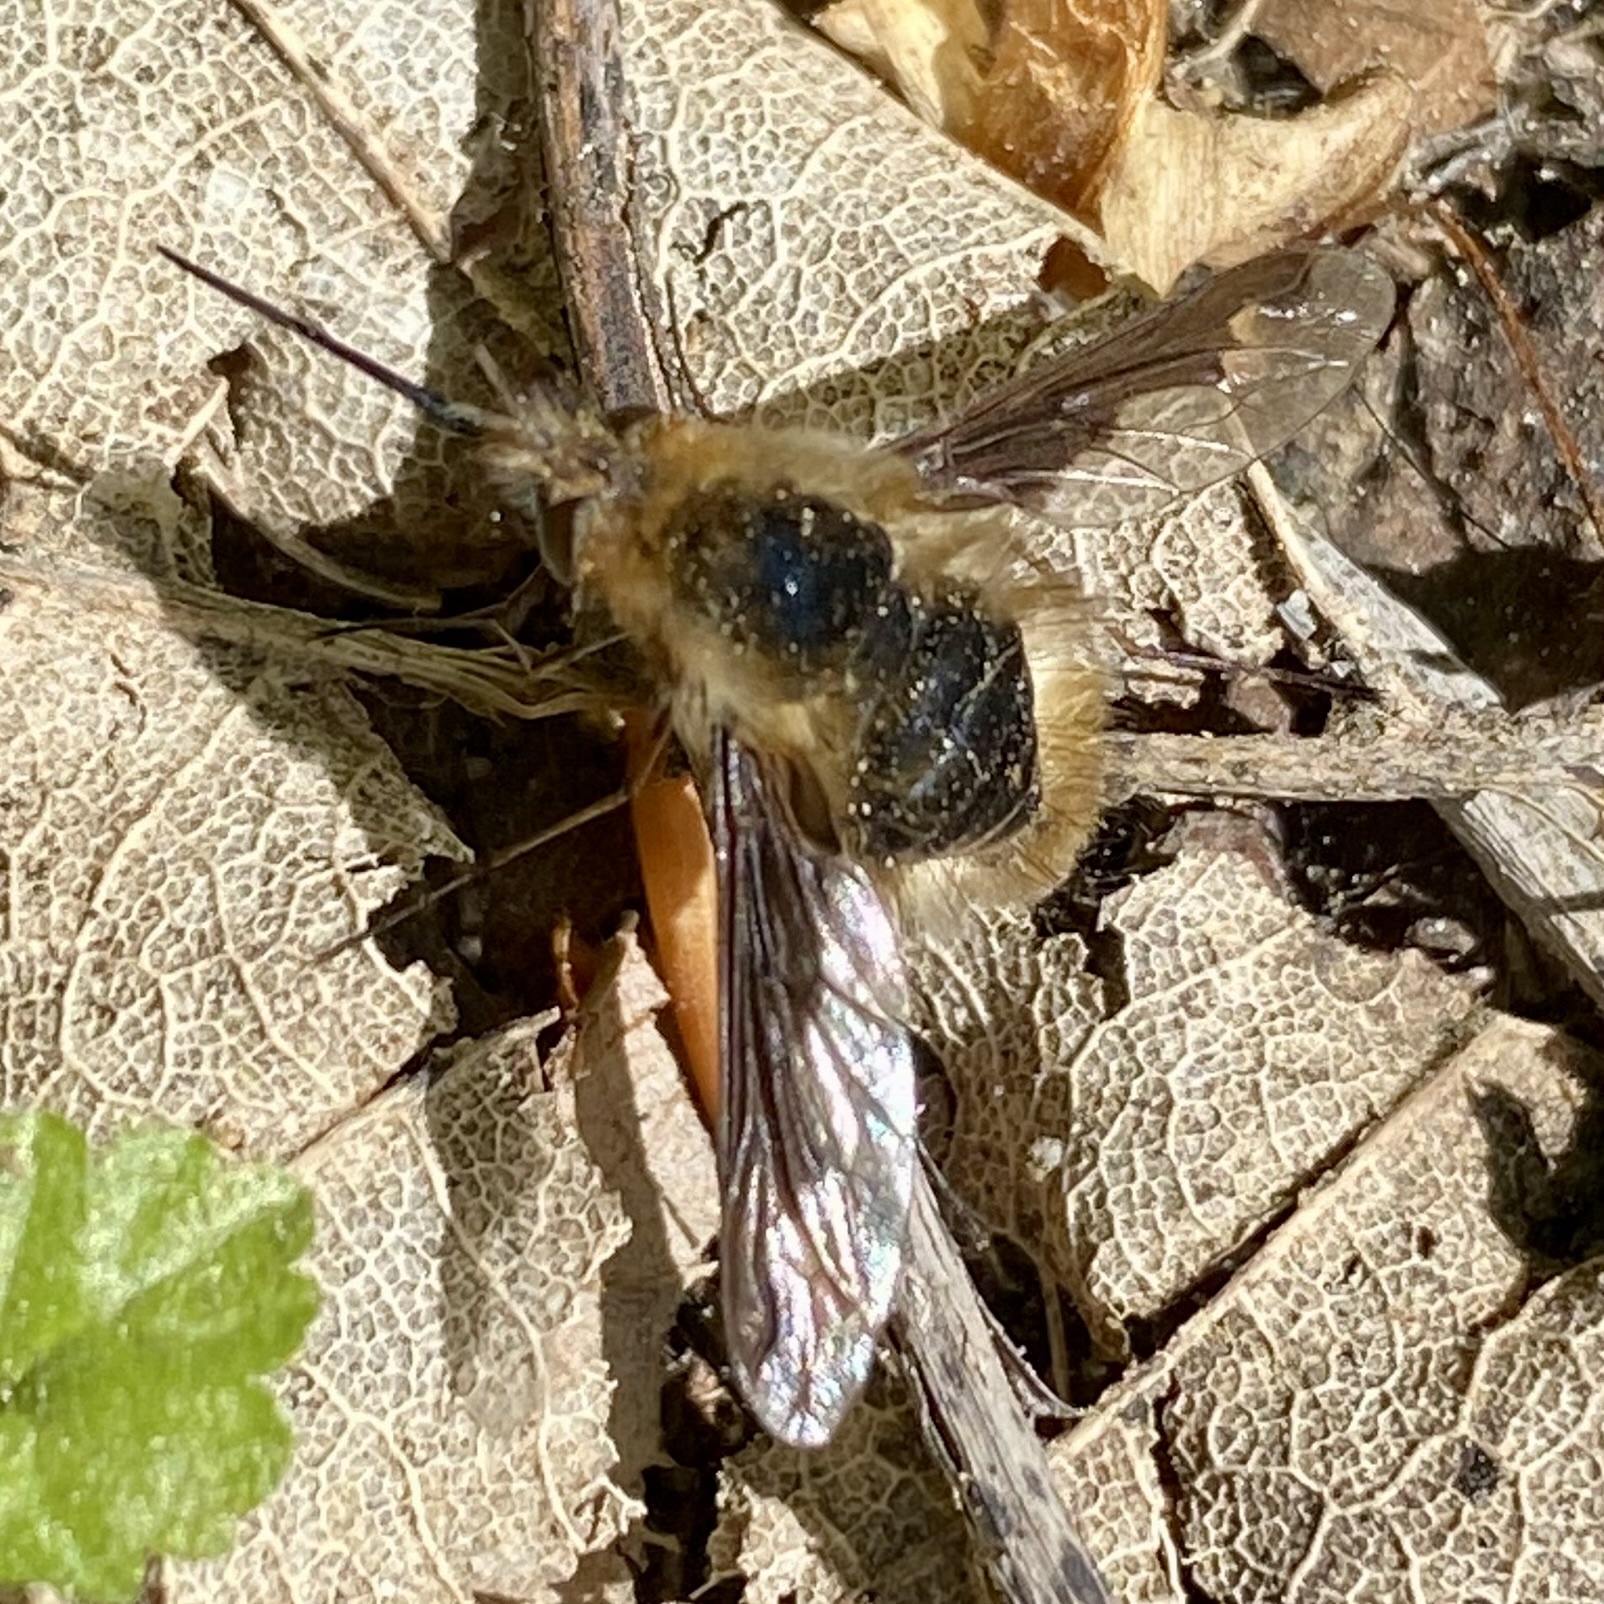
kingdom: Animalia
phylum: Arthropoda
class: Insecta
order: Diptera
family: Bombyliidae
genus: Bombylius
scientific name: Bombylius major
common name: Bee fly
